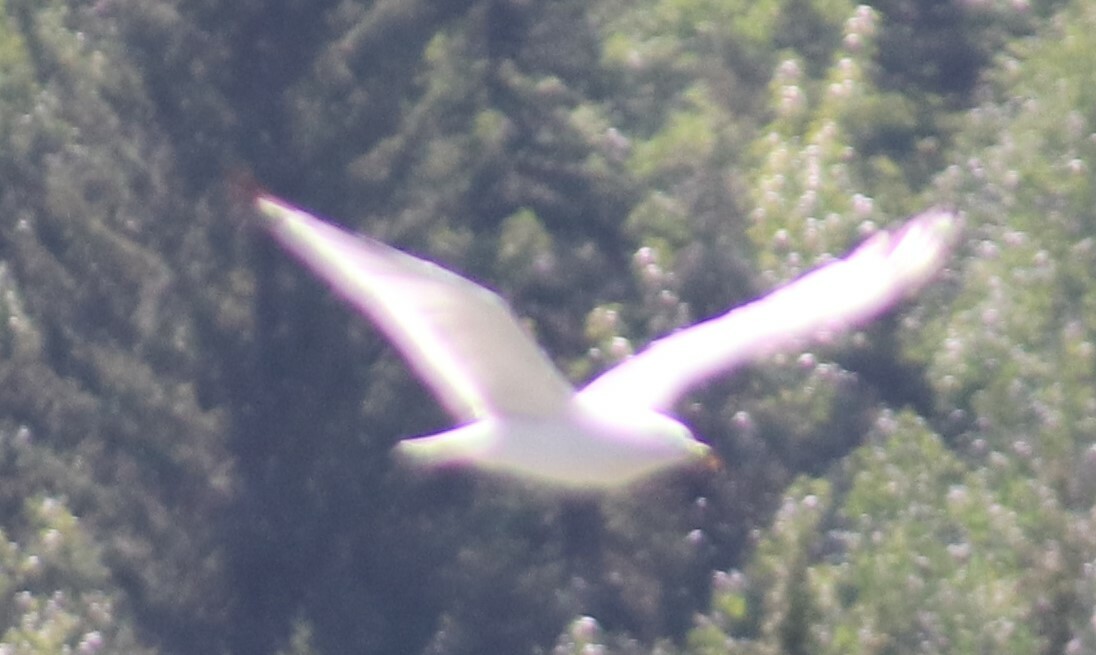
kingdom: Animalia
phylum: Chordata
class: Aves
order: Charadriiformes
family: Laridae
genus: Larus
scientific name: Larus delawarensis
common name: Ring-billed gull
